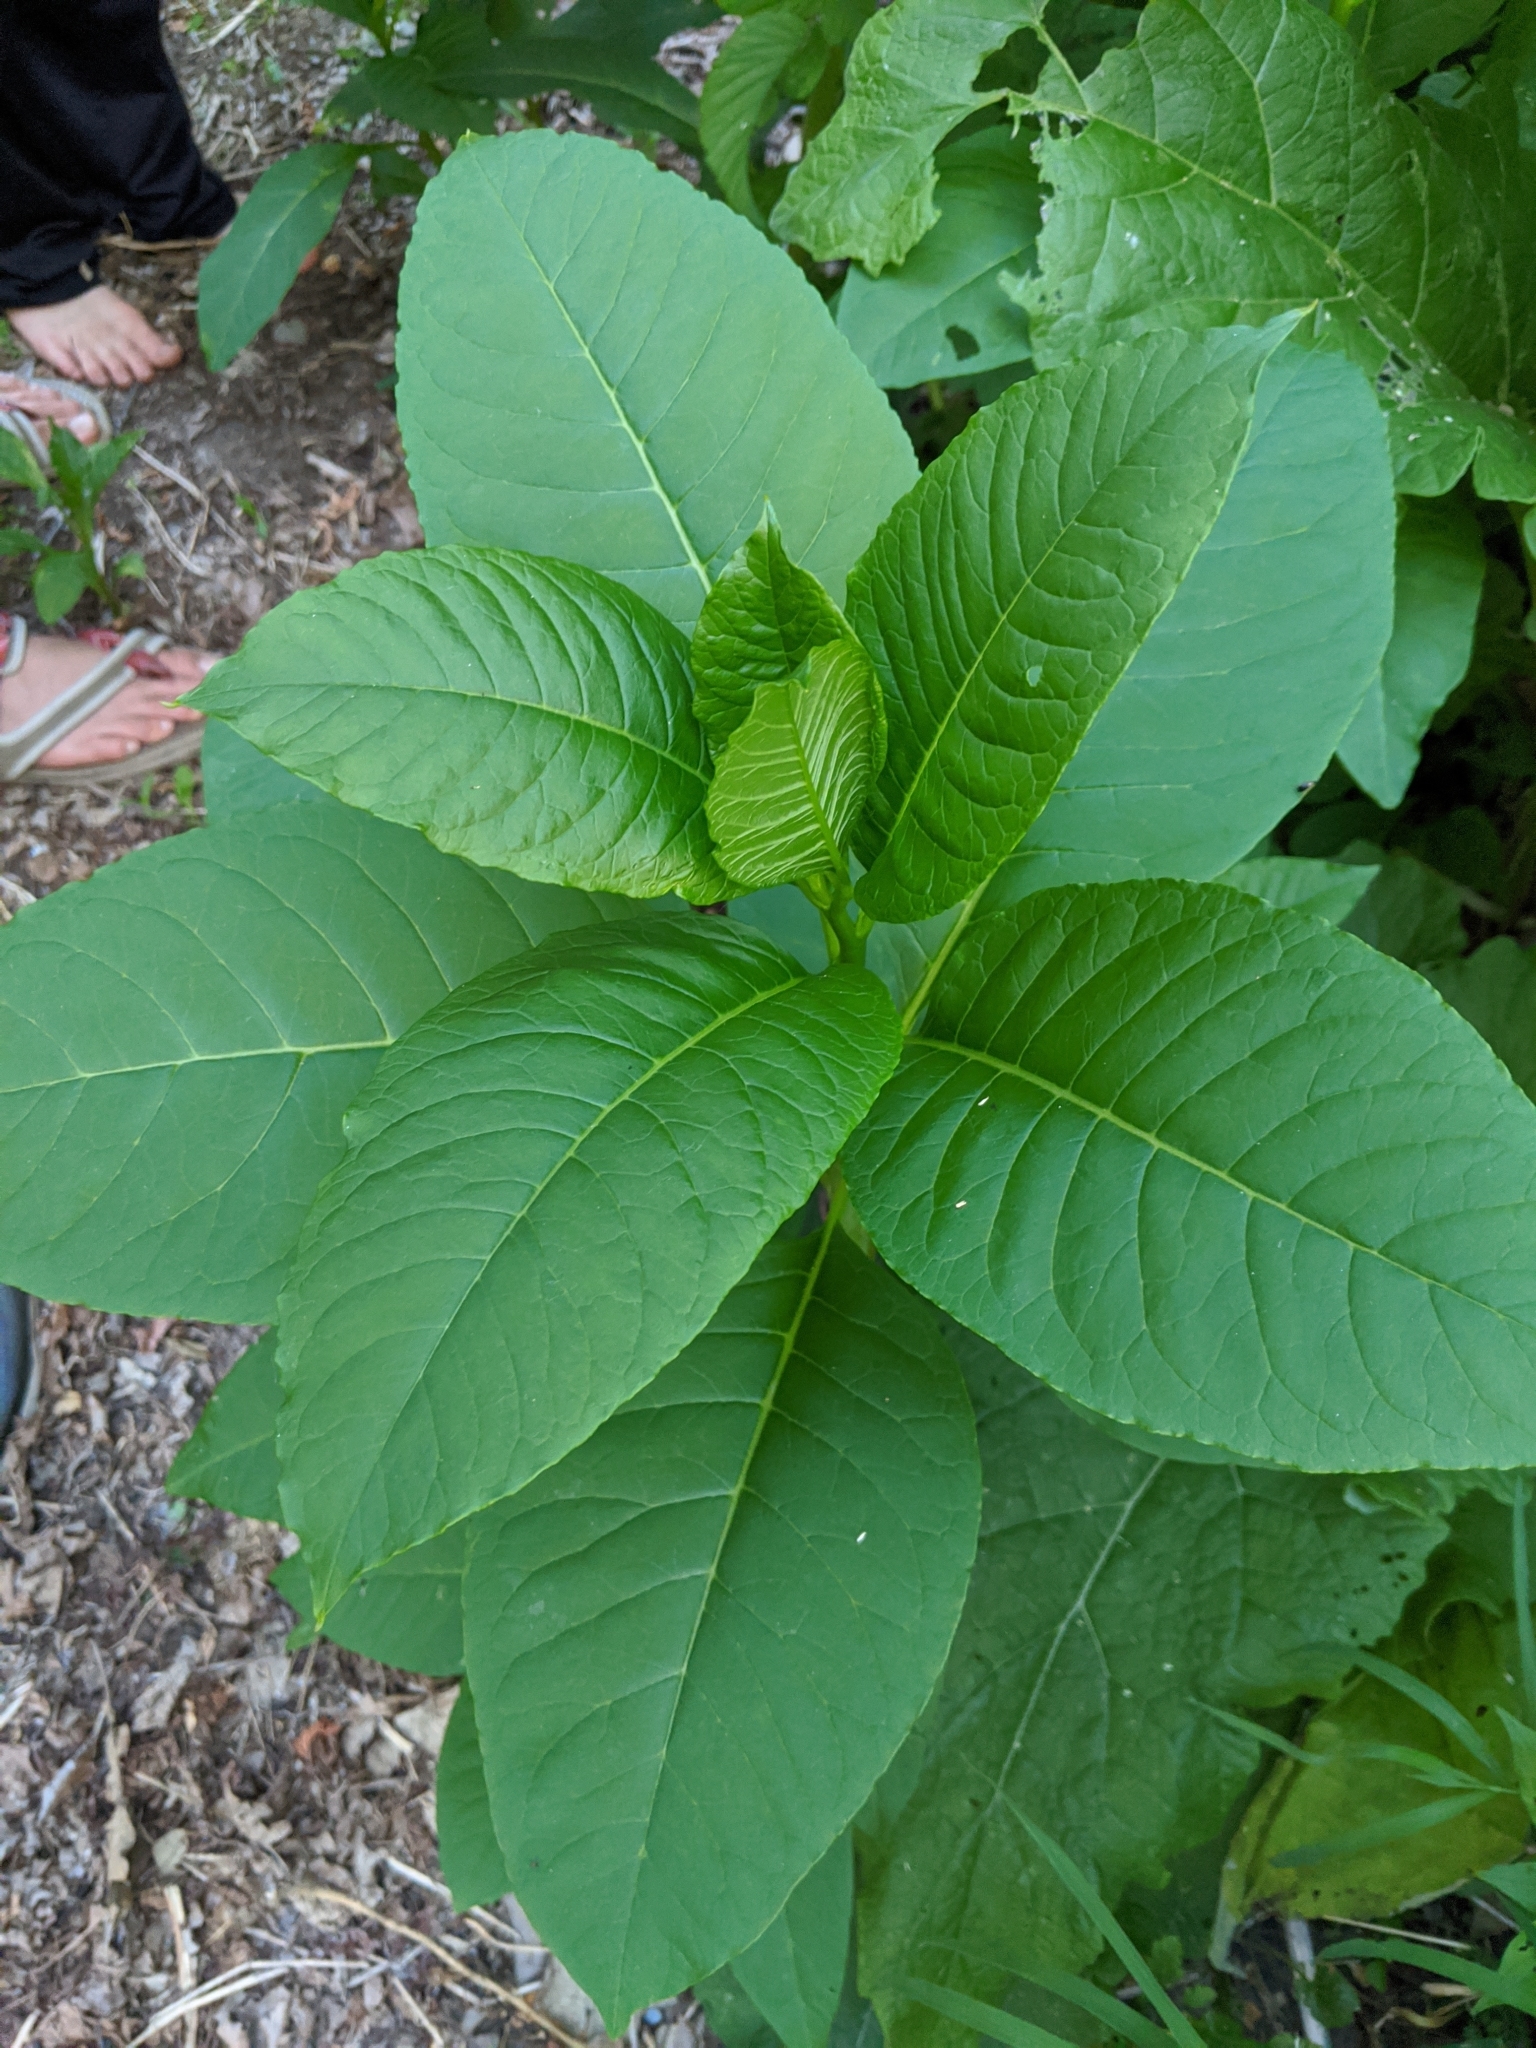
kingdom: Plantae
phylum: Tracheophyta
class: Magnoliopsida
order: Caryophyllales
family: Phytolaccaceae
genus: Phytolacca
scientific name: Phytolacca americana
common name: American pokeweed
